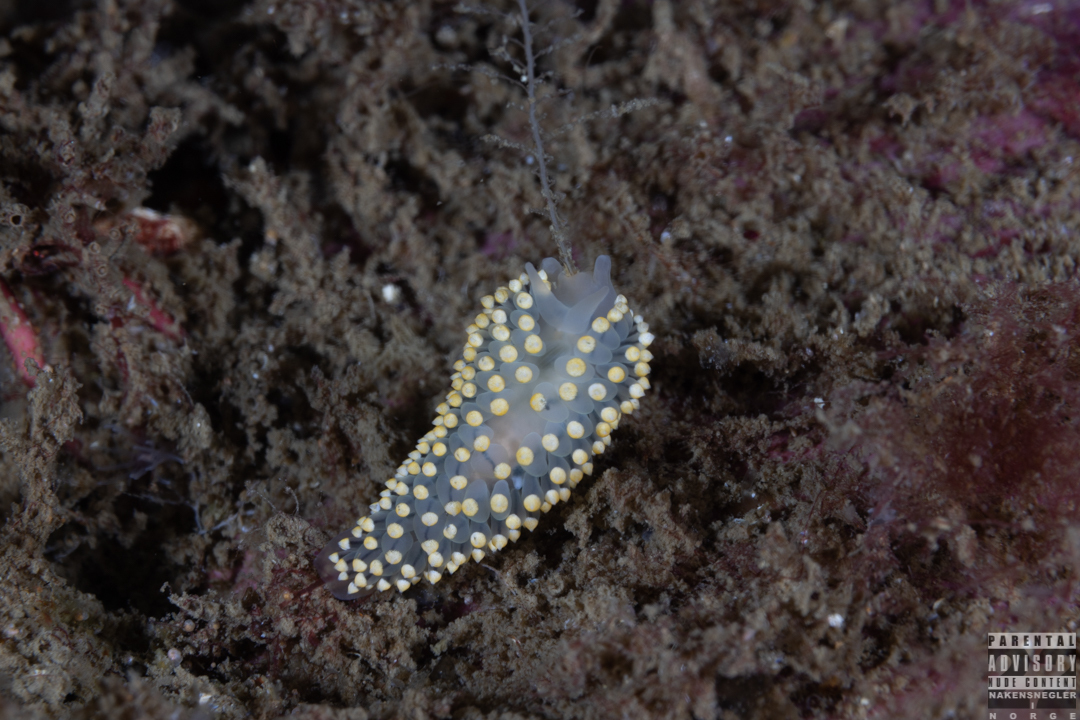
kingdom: Animalia
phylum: Mollusca
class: Gastropoda
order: Nudibranchia
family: Eubranchidae
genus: Eubranchus
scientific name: Eubranchus tricolor
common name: Painted balloon aeolis
